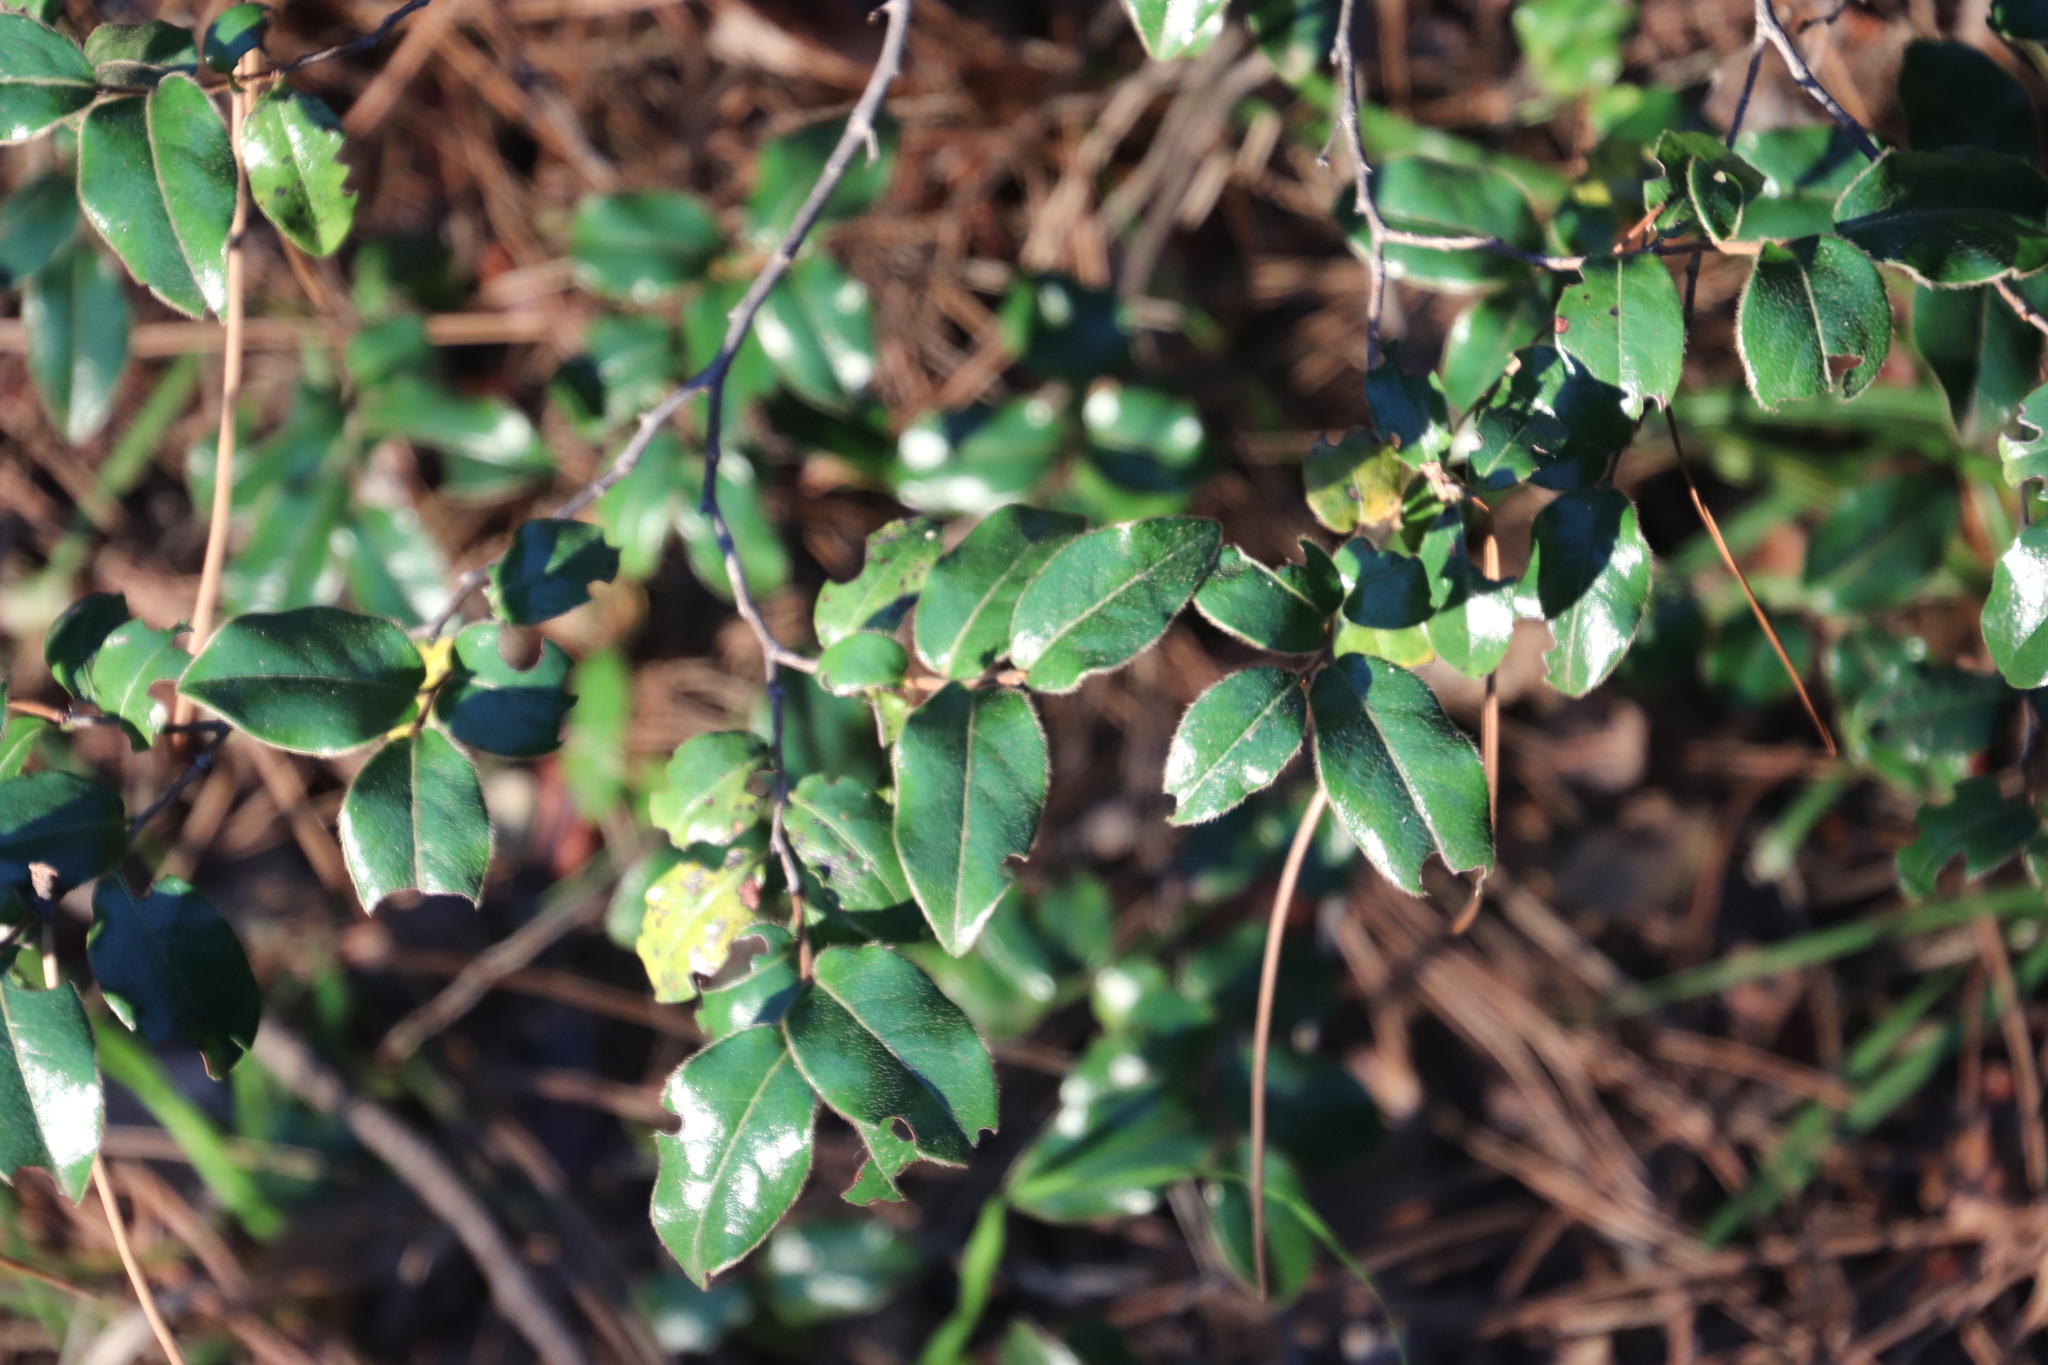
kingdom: Plantae
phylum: Tracheophyta
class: Magnoliopsida
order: Ericales
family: Ebenaceae
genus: Diospyros
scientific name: Diospyros whyteana
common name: Bladder-nut
